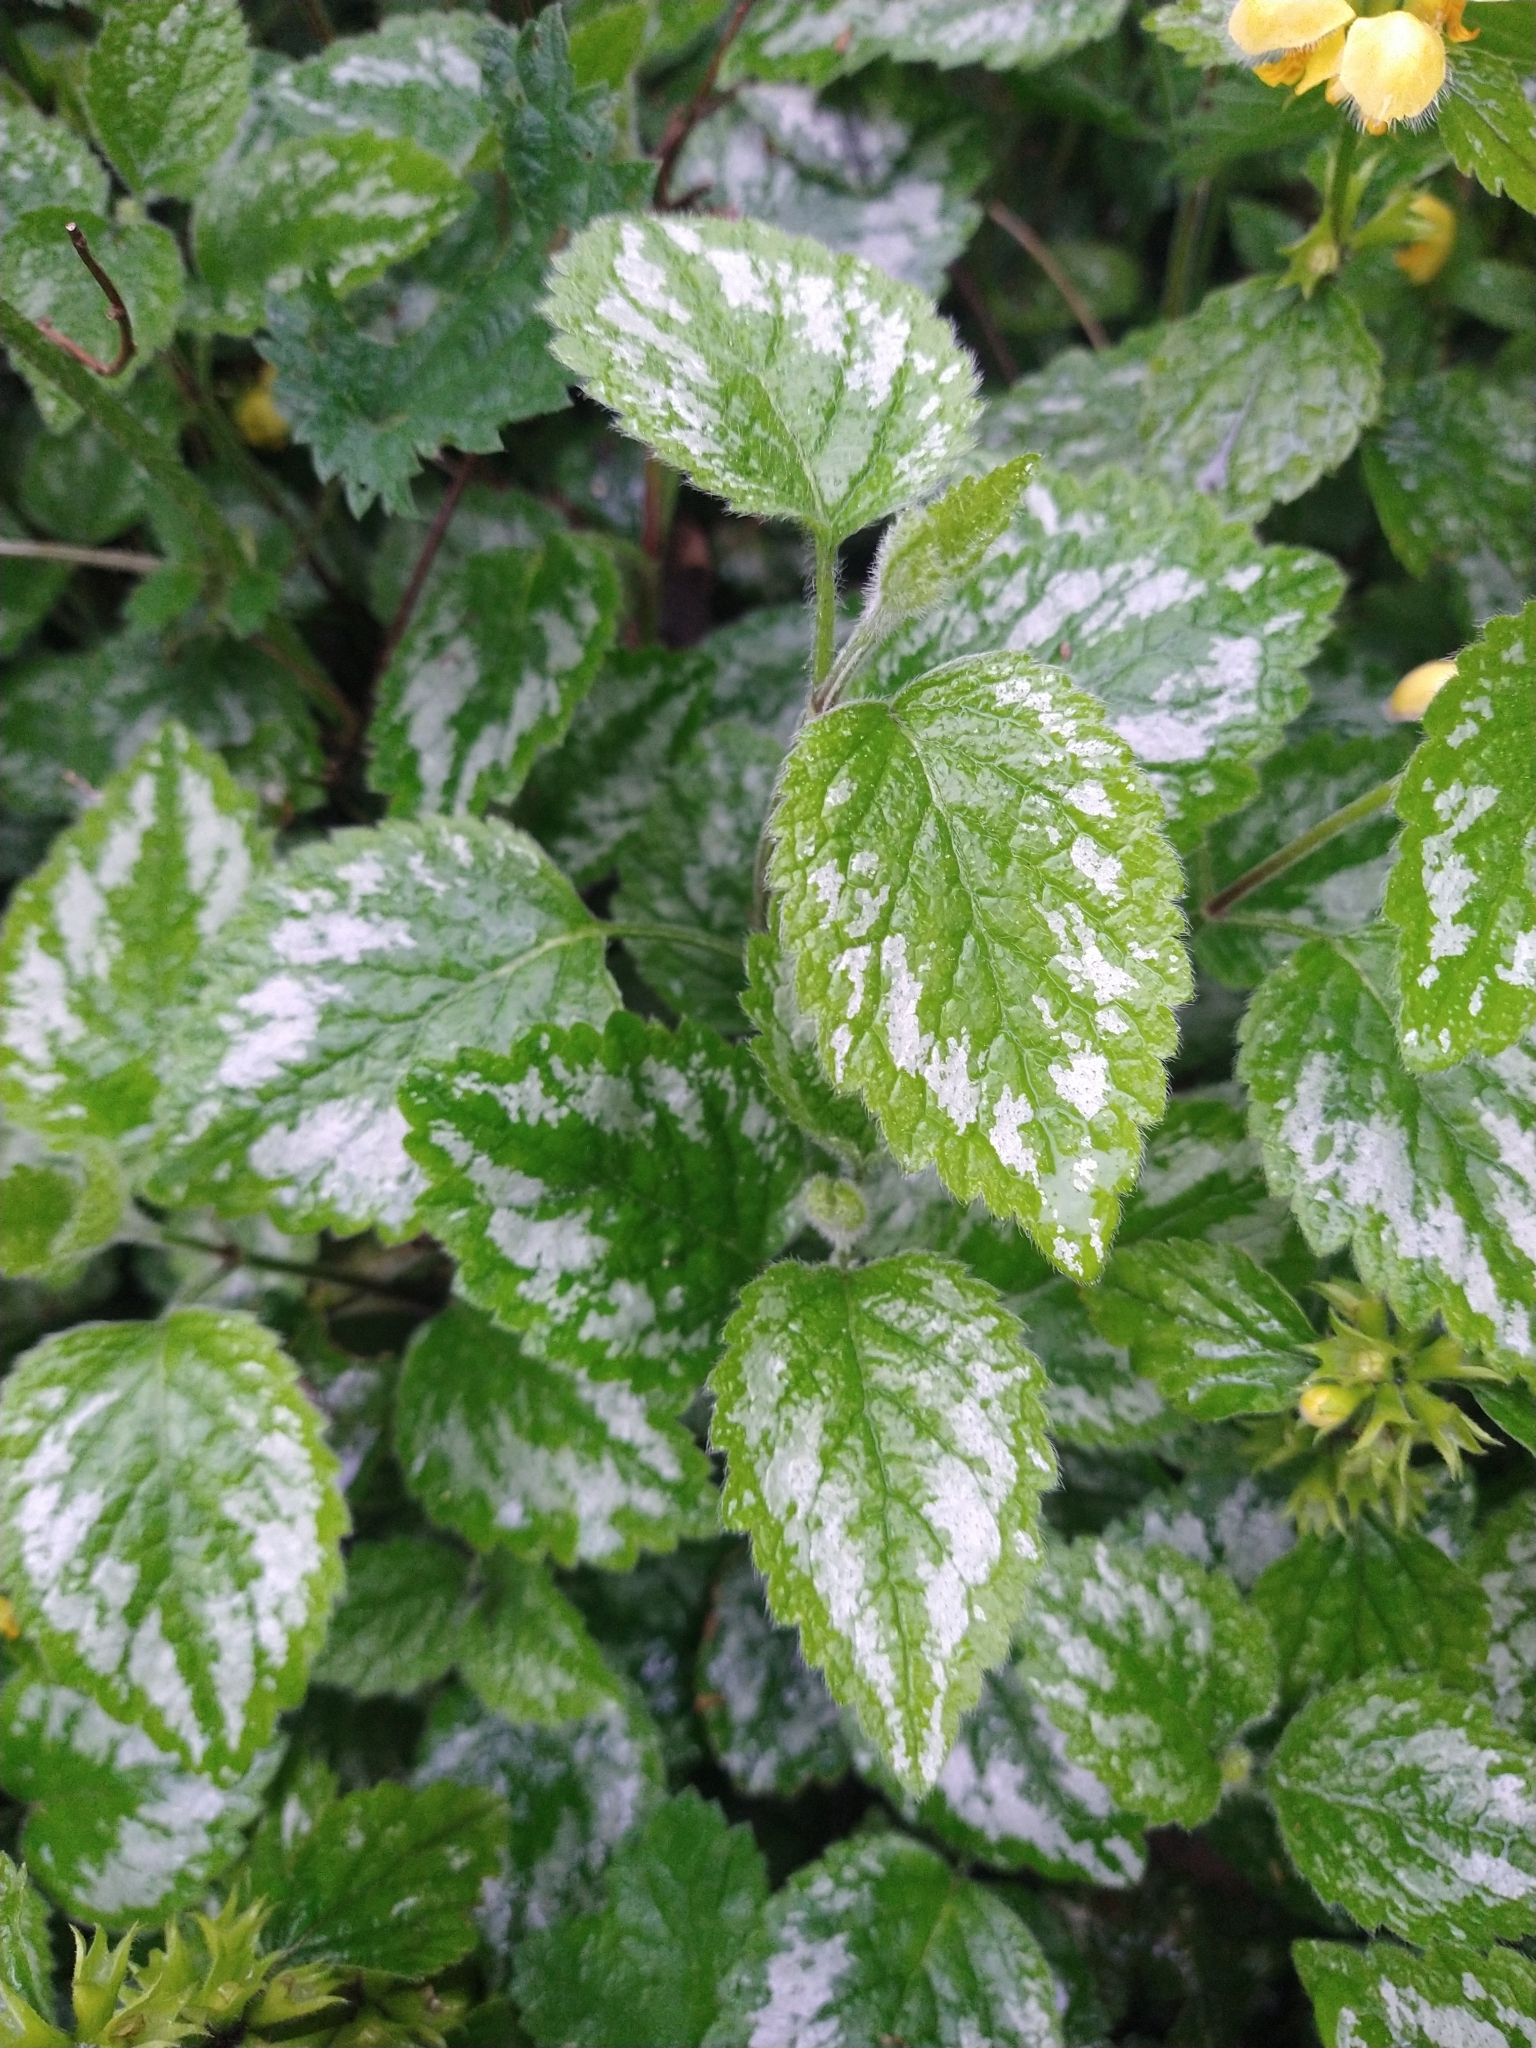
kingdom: Plantae
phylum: Tracheophyta
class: Magnoliopsida
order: Lamiales
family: Lamiaceae
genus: Lamium
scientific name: Lamium galeobdolon
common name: Yellow archangel
